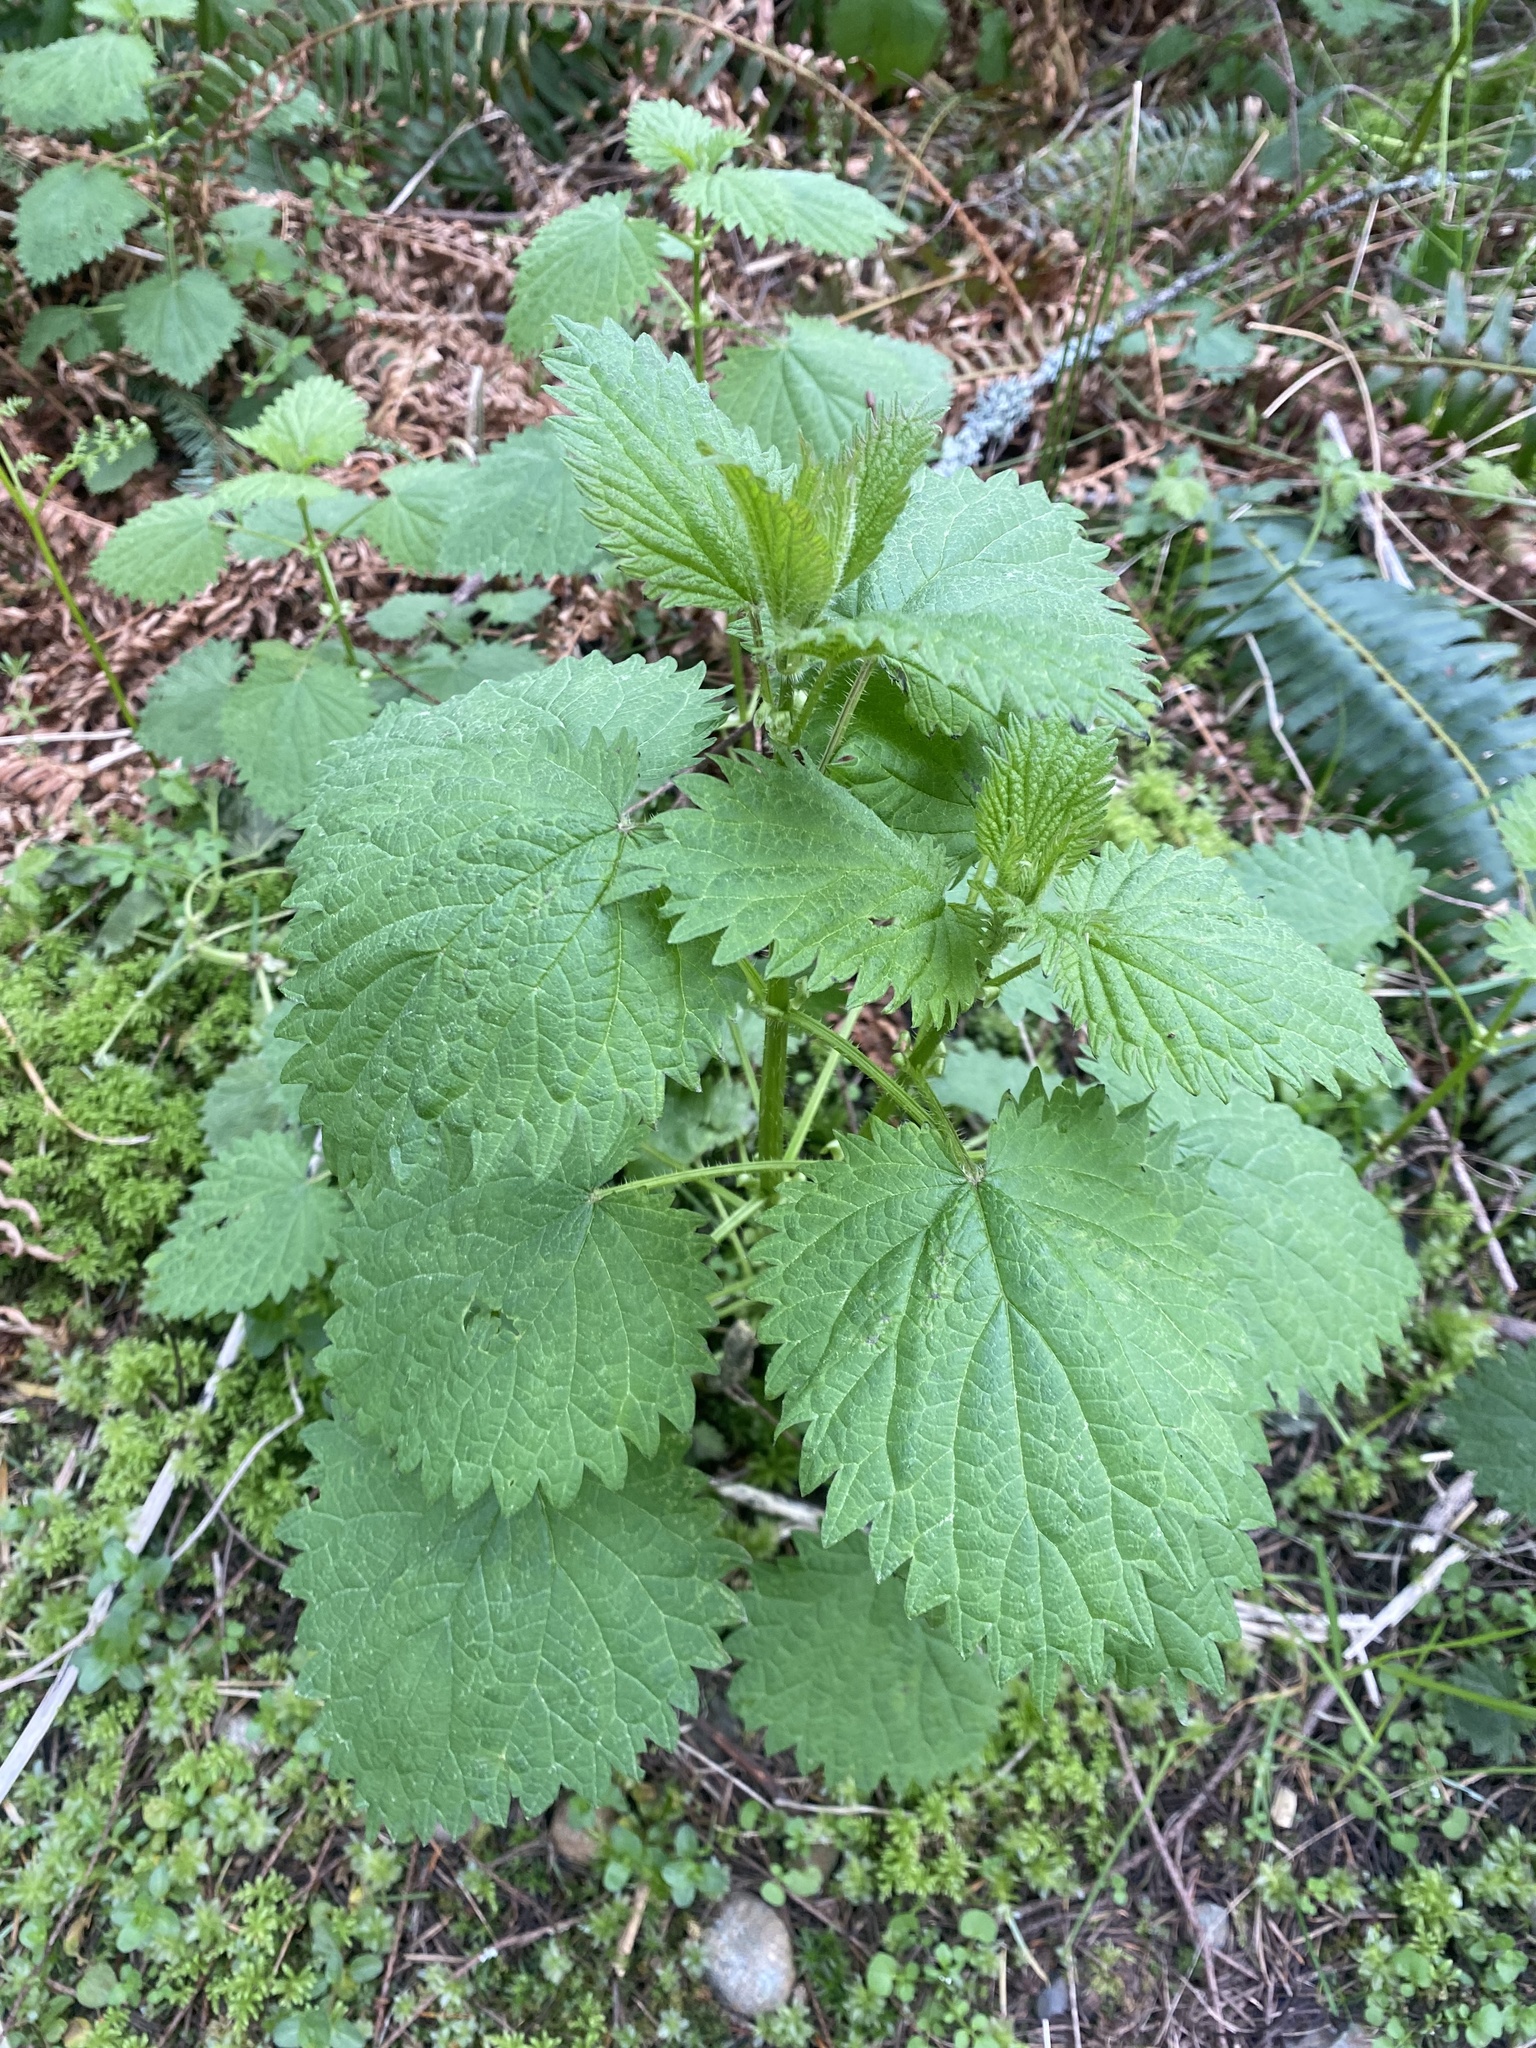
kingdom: Plantae
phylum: Tracheophyta
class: Magnoliopsida
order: Rosales
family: Urticaceae
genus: Urtica
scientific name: Urtica dioica
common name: Common nettle
